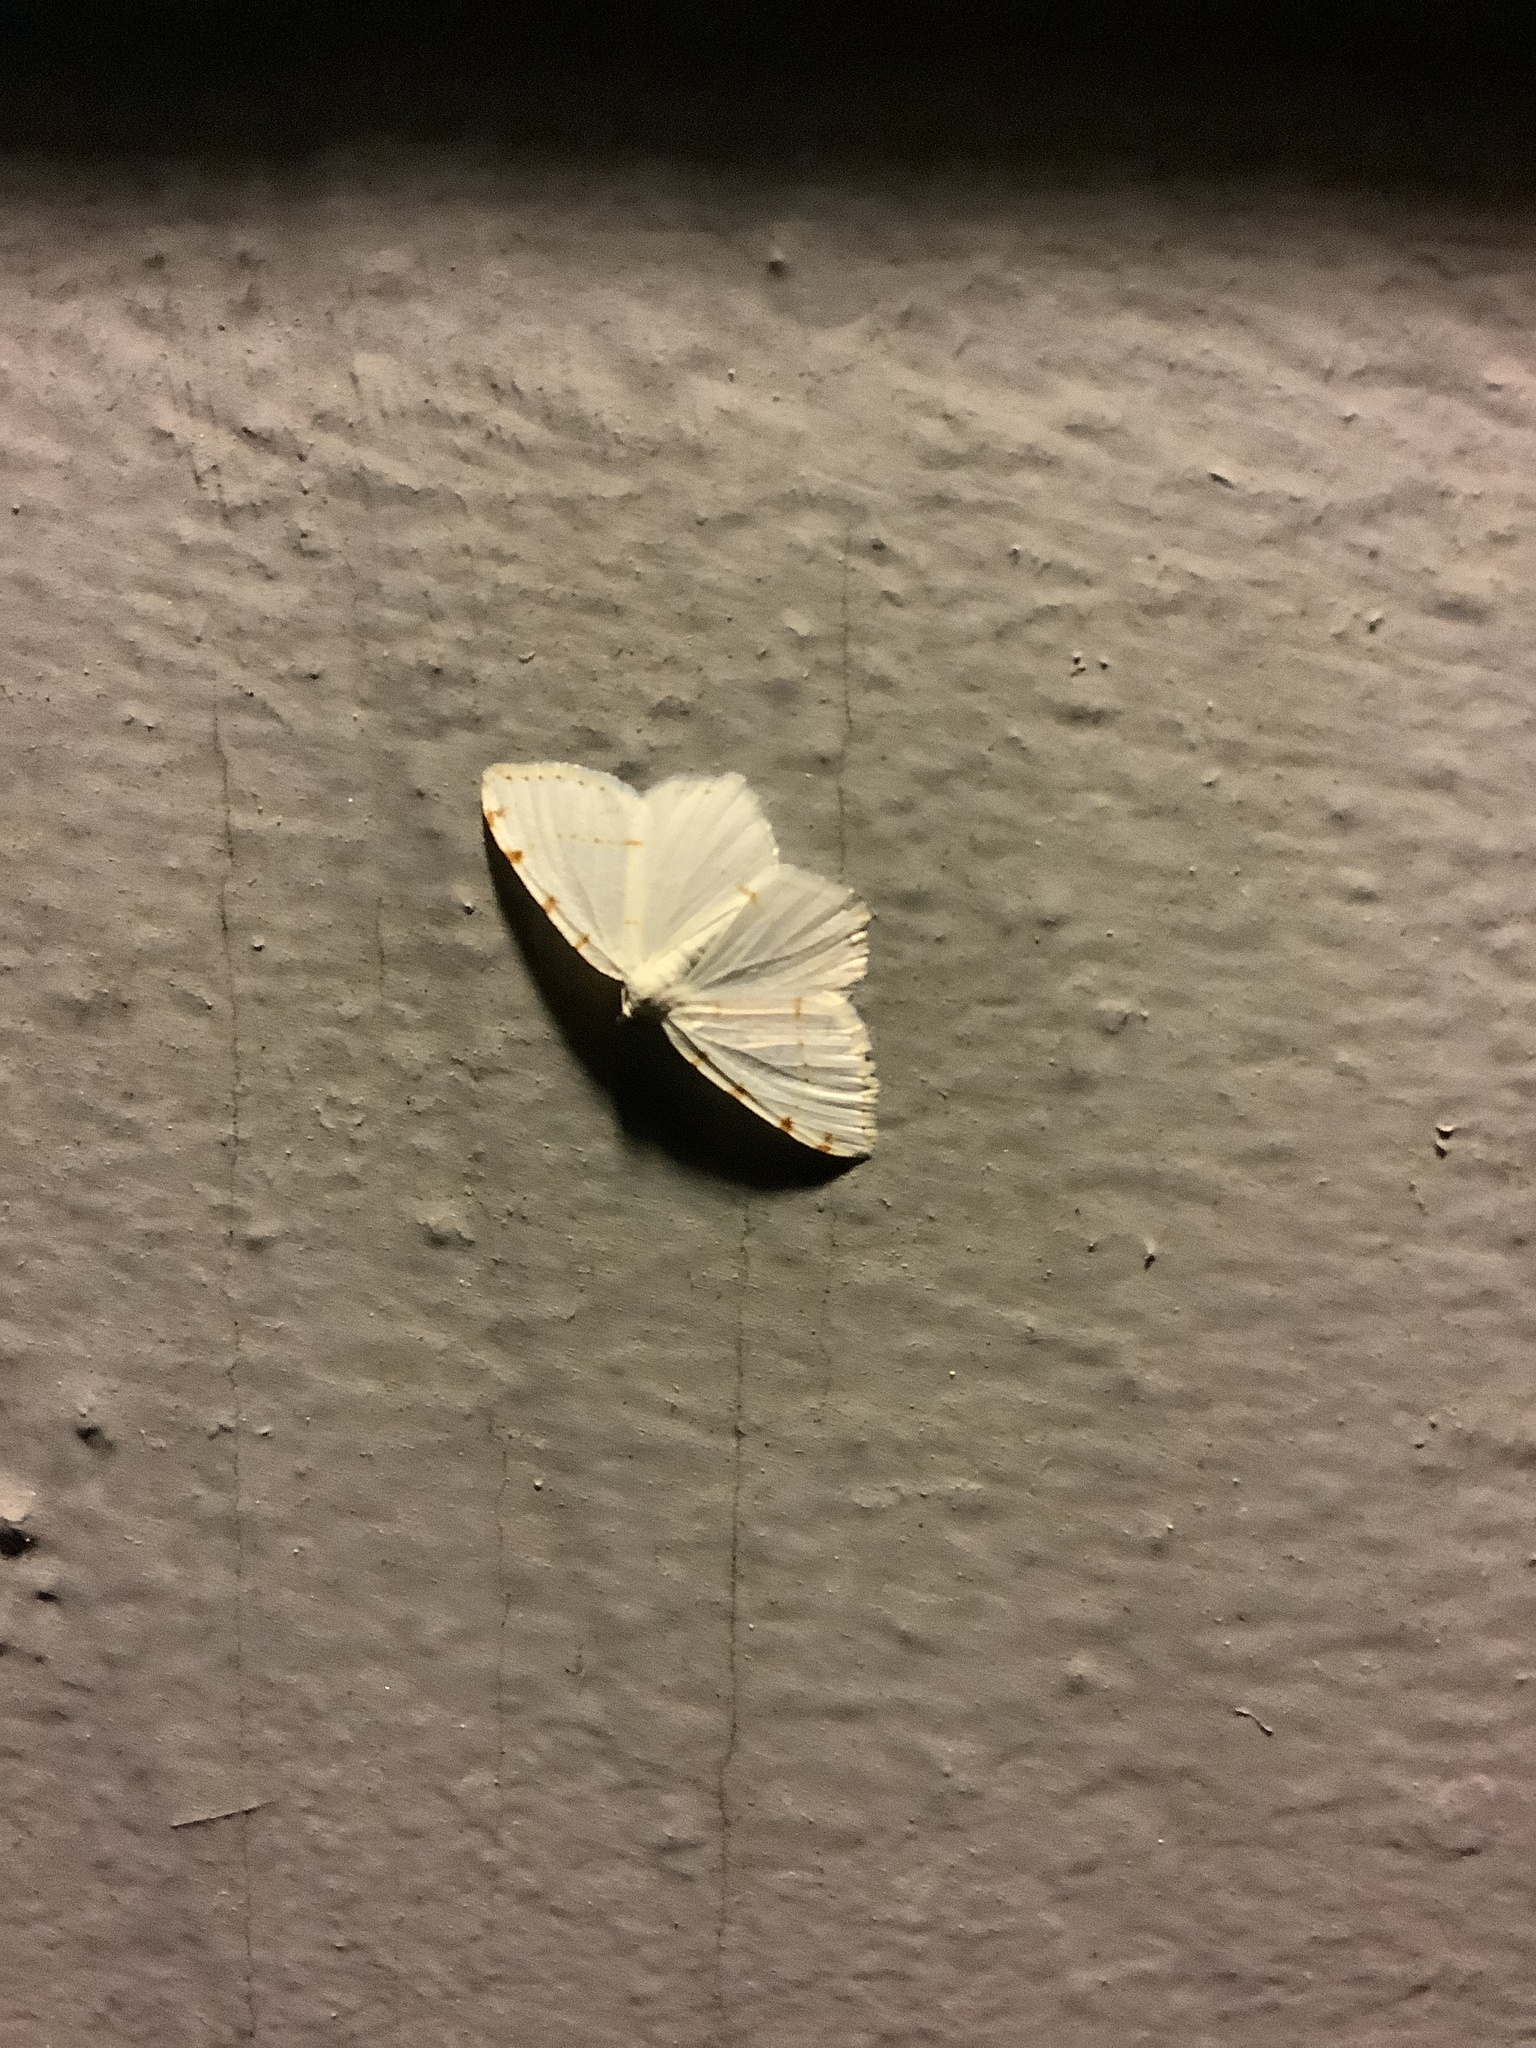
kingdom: Animalia
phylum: Arthropoda
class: Insecta
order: Lepidoptera
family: Geometridae
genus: Macaria
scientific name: Macaria pustularia
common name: Lesser maple spanworm moth
